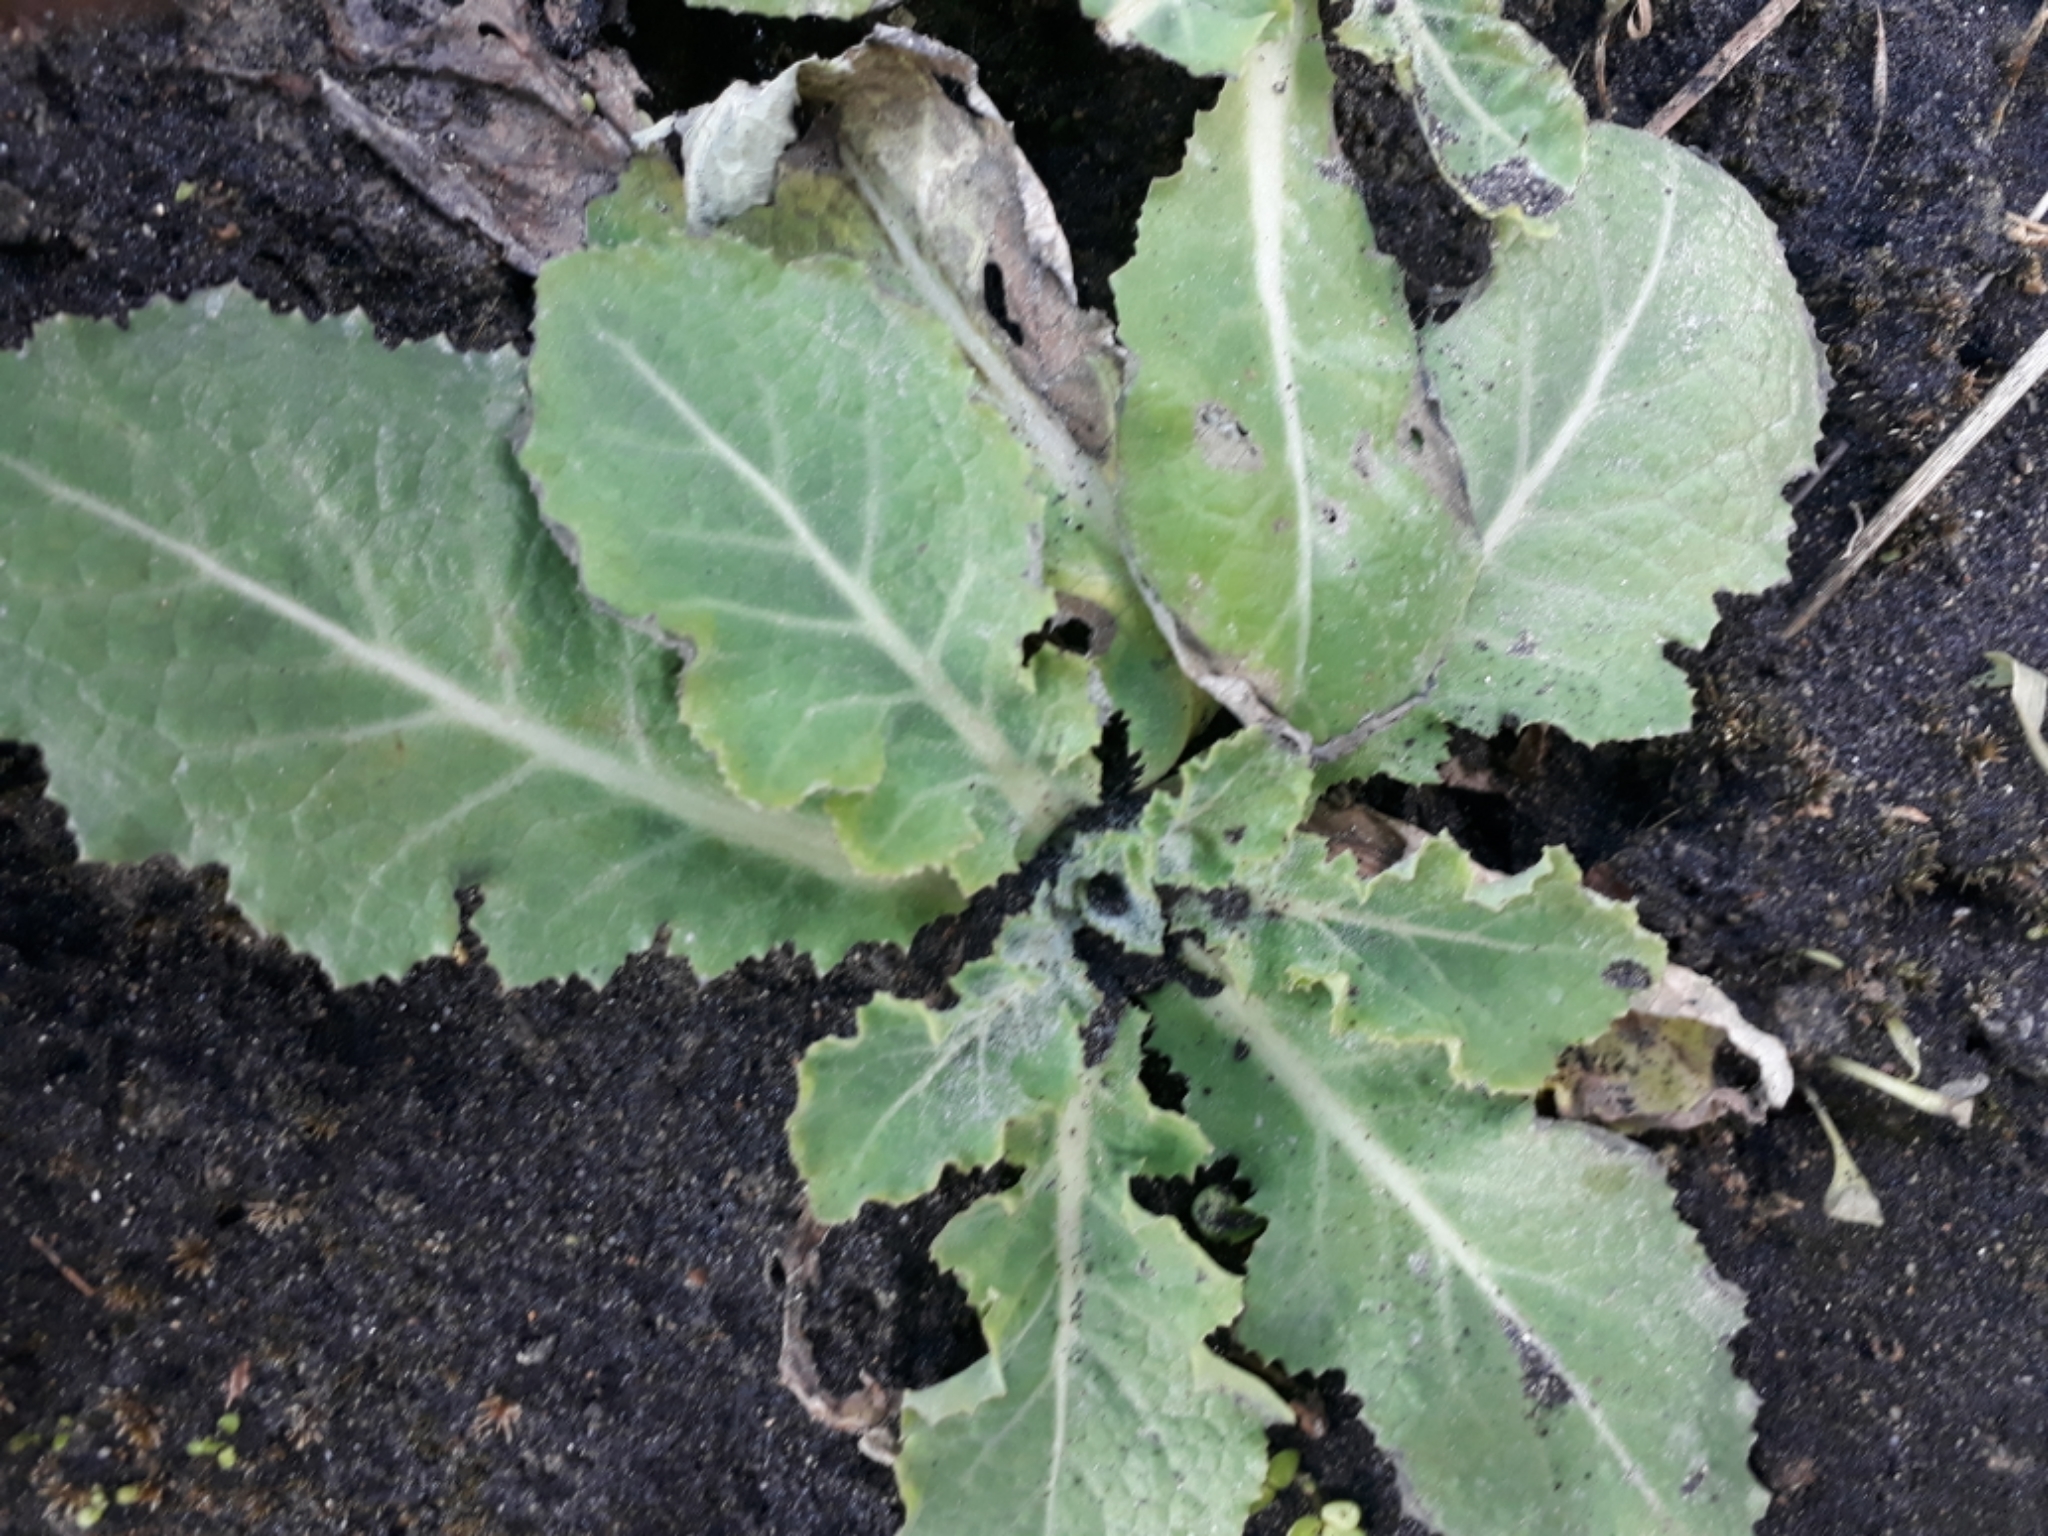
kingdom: Plantae
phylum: Tracheophyta
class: Magnoliopsida
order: Asterales
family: Asteraceae
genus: Sonchus
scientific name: Sonchus kirkii
